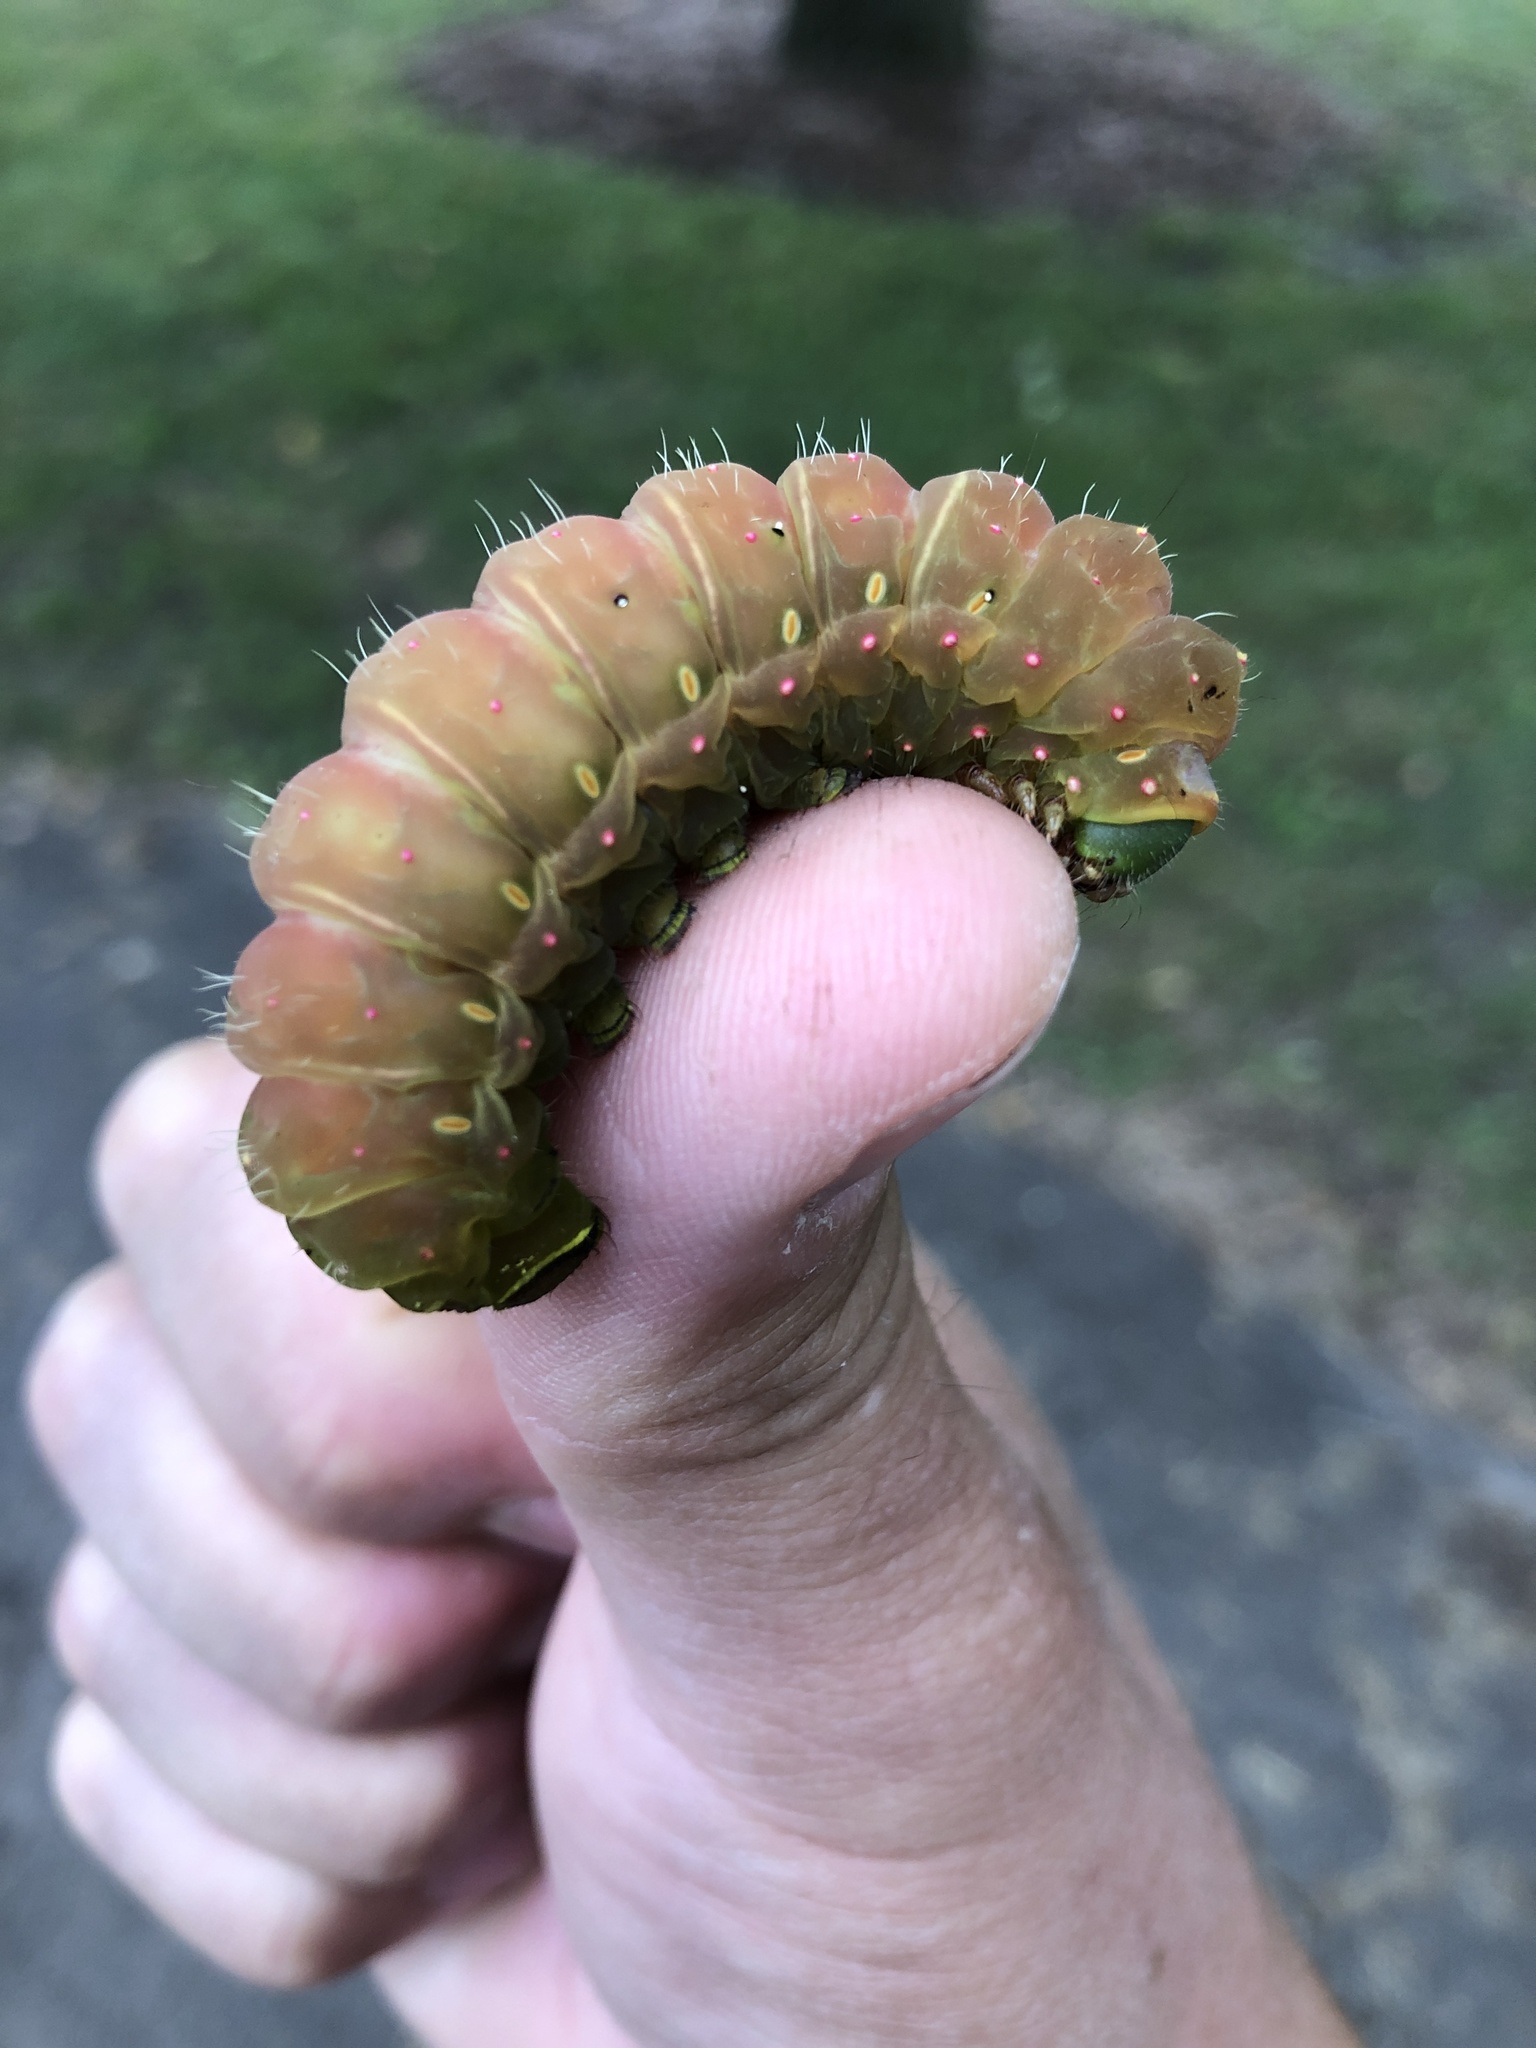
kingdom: Animalia
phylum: Arthropoda
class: Insecta
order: Lepidoptera
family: Saturniidae
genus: Actias
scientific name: Actias luna
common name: Luna moth
